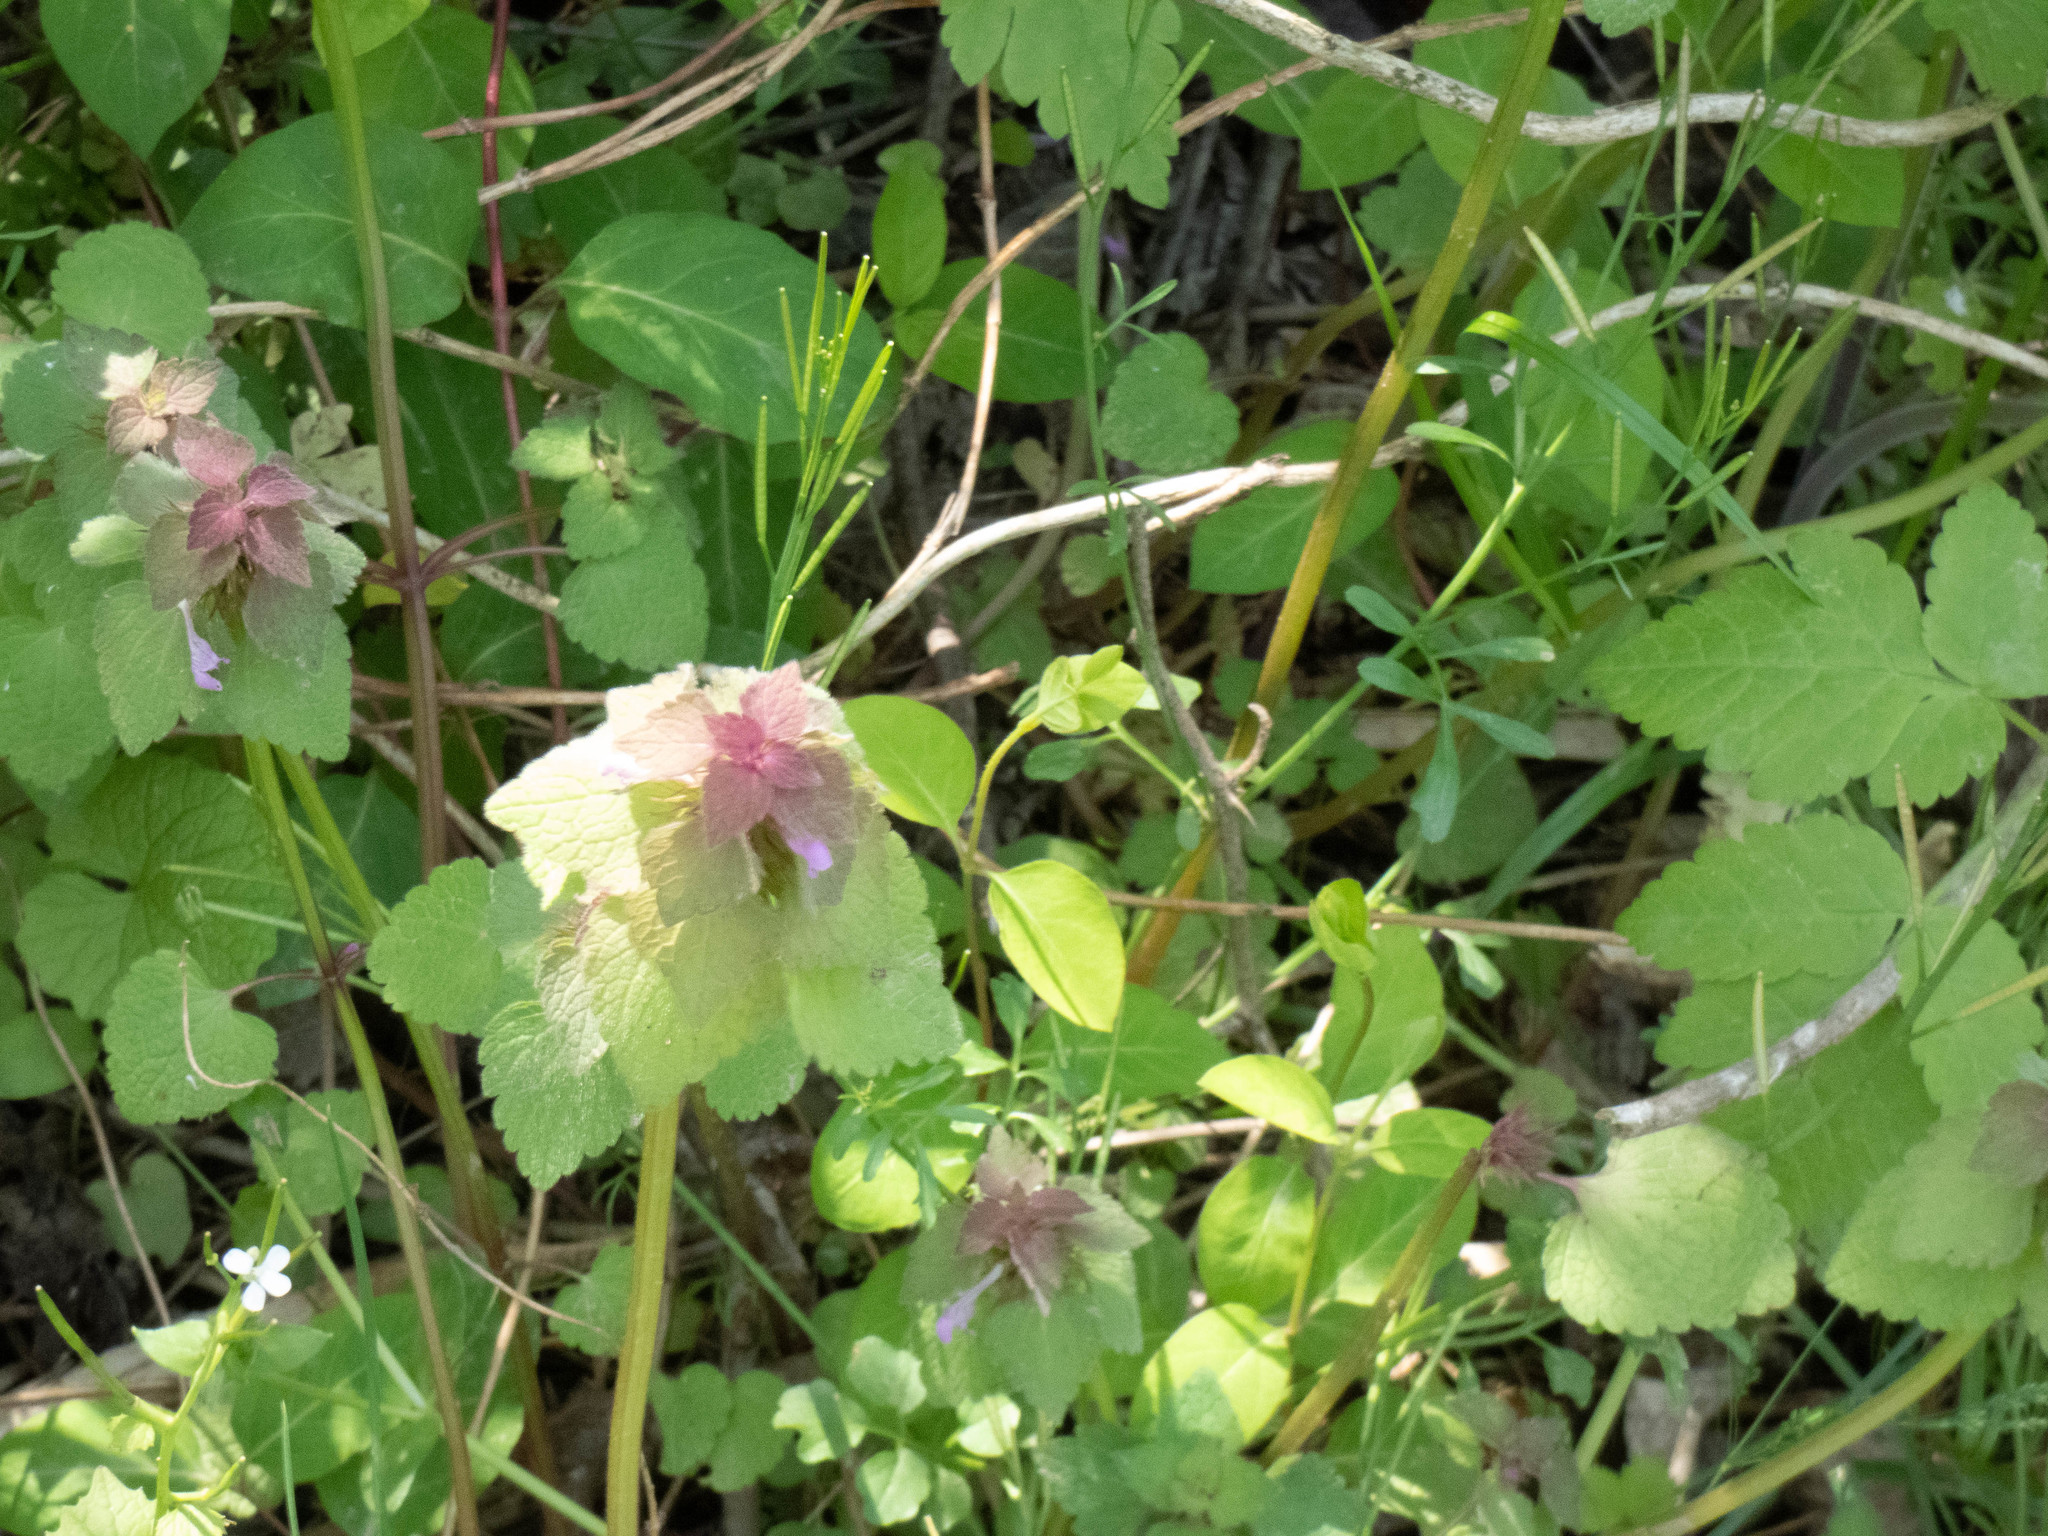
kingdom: Plantae
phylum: Tracheophyta
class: Magnoliopsida
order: Lamiales
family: Lamiaceae
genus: Lamium
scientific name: Lamium purpureum
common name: Red dead-nettle
